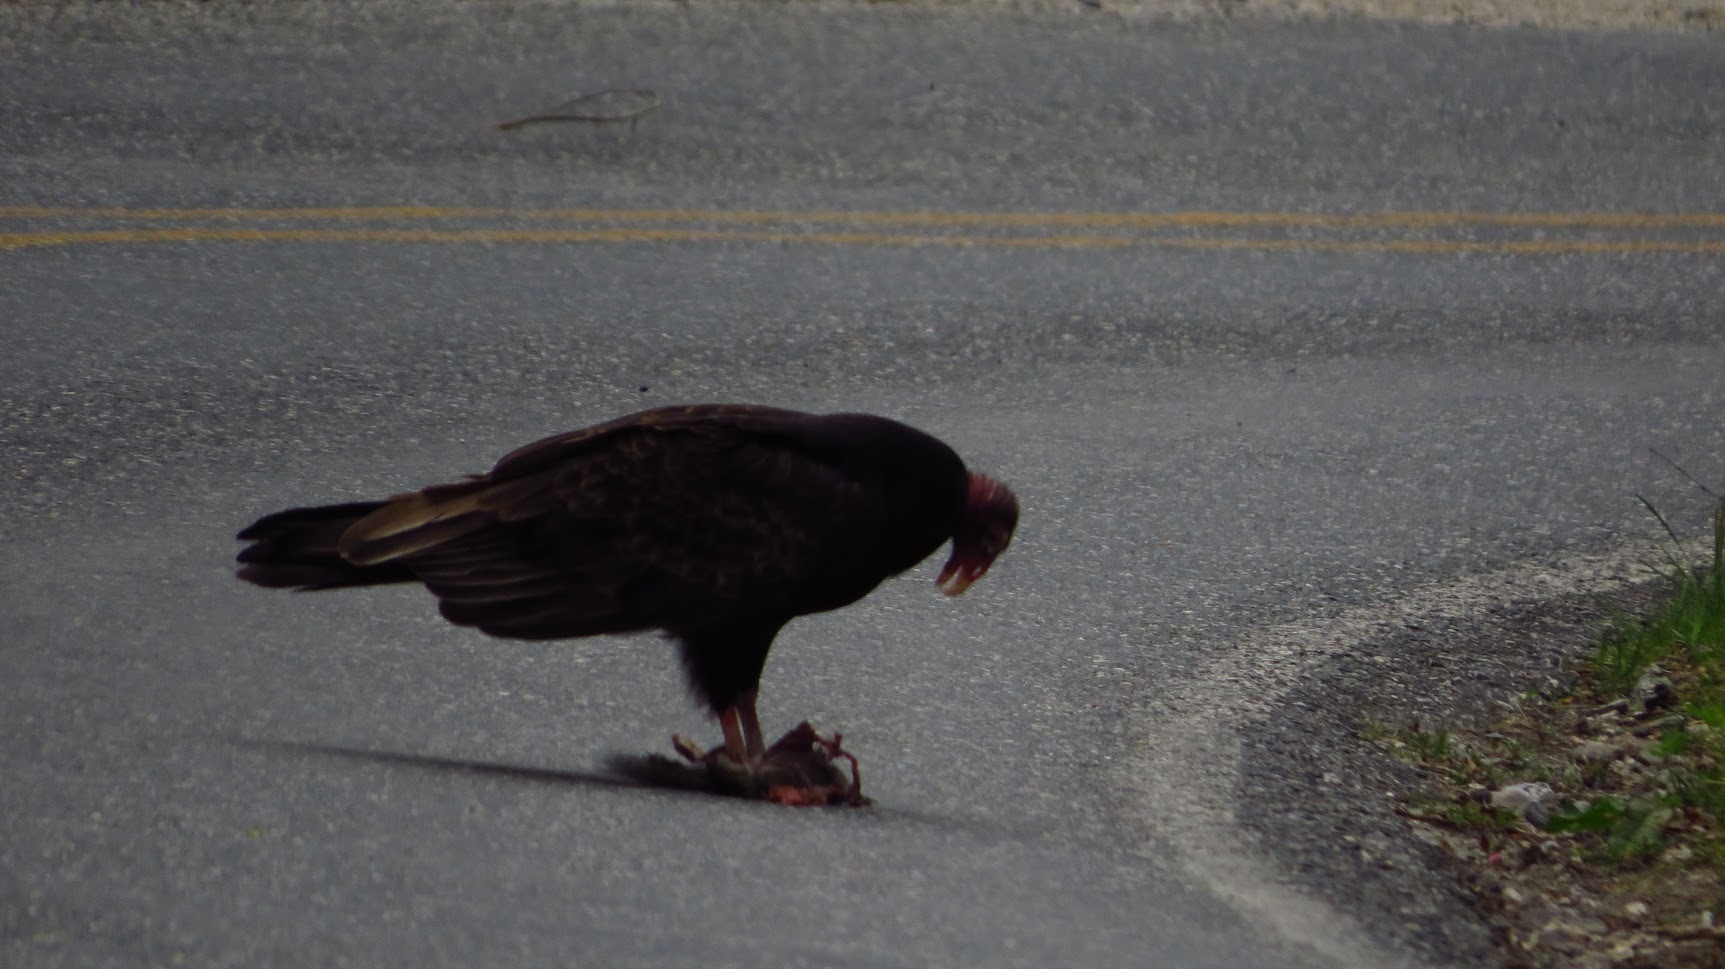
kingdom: Animalia
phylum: Chordata
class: Aves
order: Accipitriformes
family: Cathartidae
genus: Cathartes
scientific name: Cathartes aura
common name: Turkey vulture
